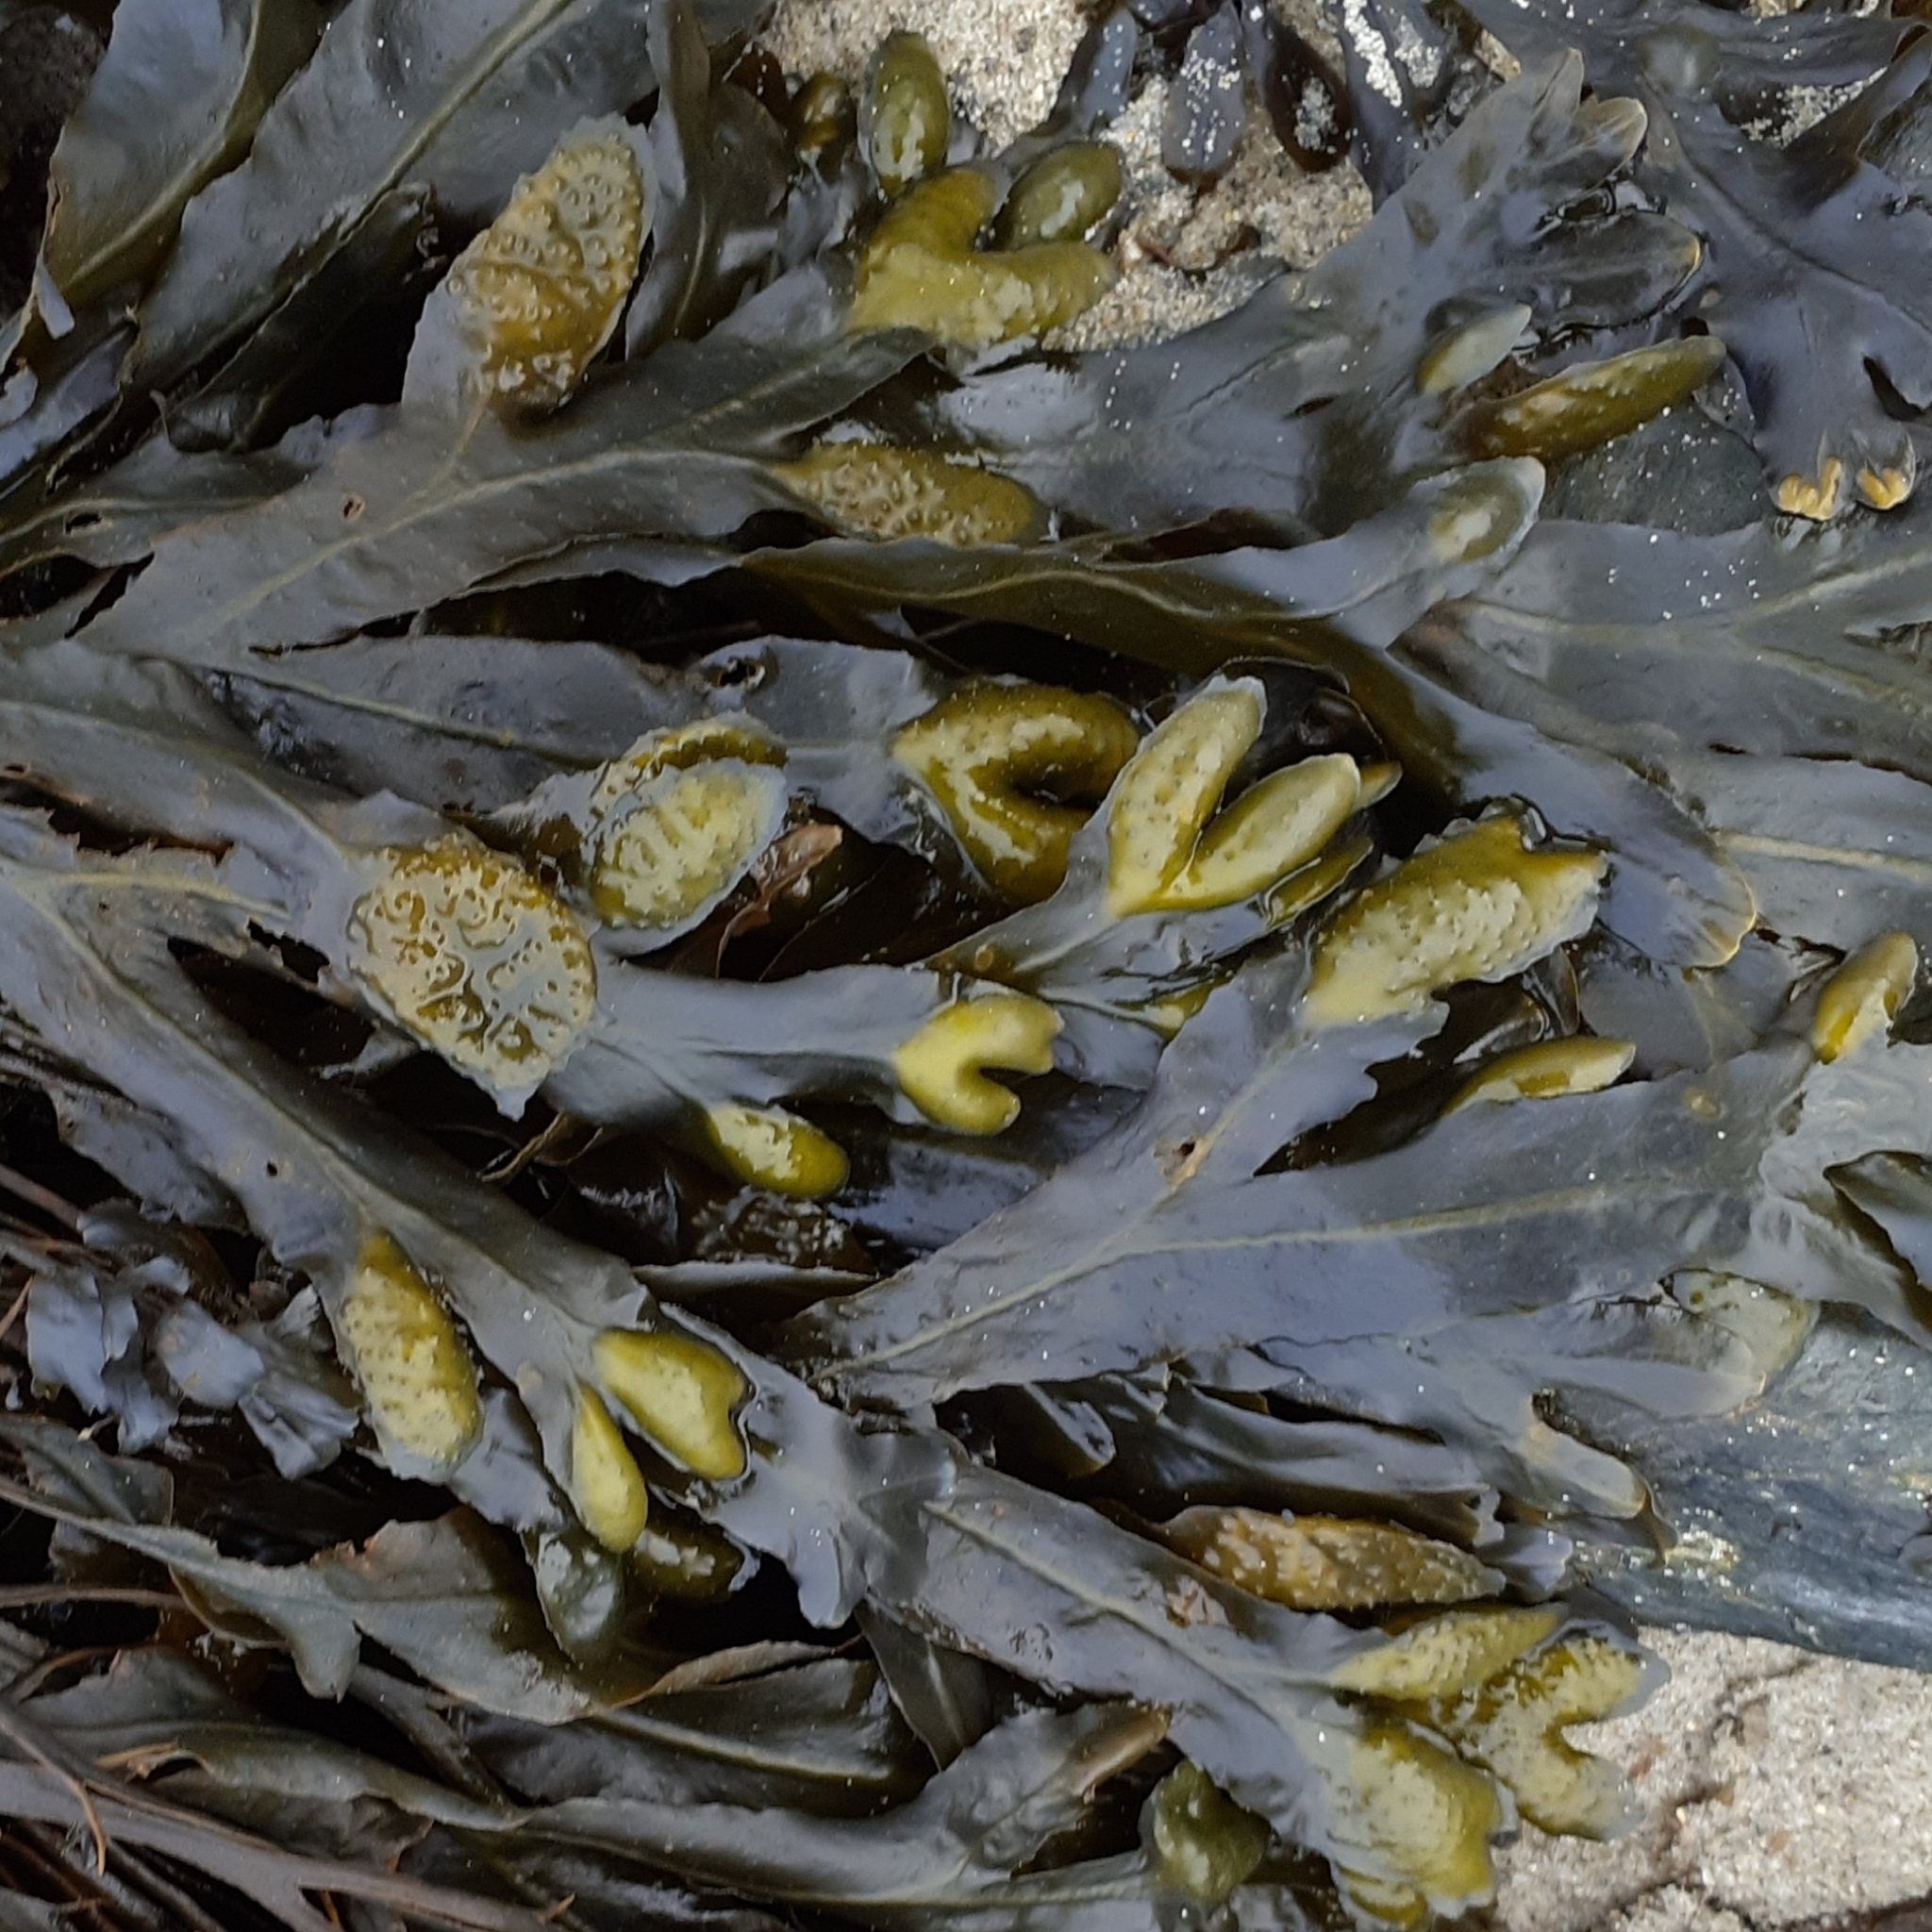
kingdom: Chromista
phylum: Ochrophyta
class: Phaeophyceae
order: Fucales
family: Fucaceae
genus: Fucus
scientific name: Fucus
